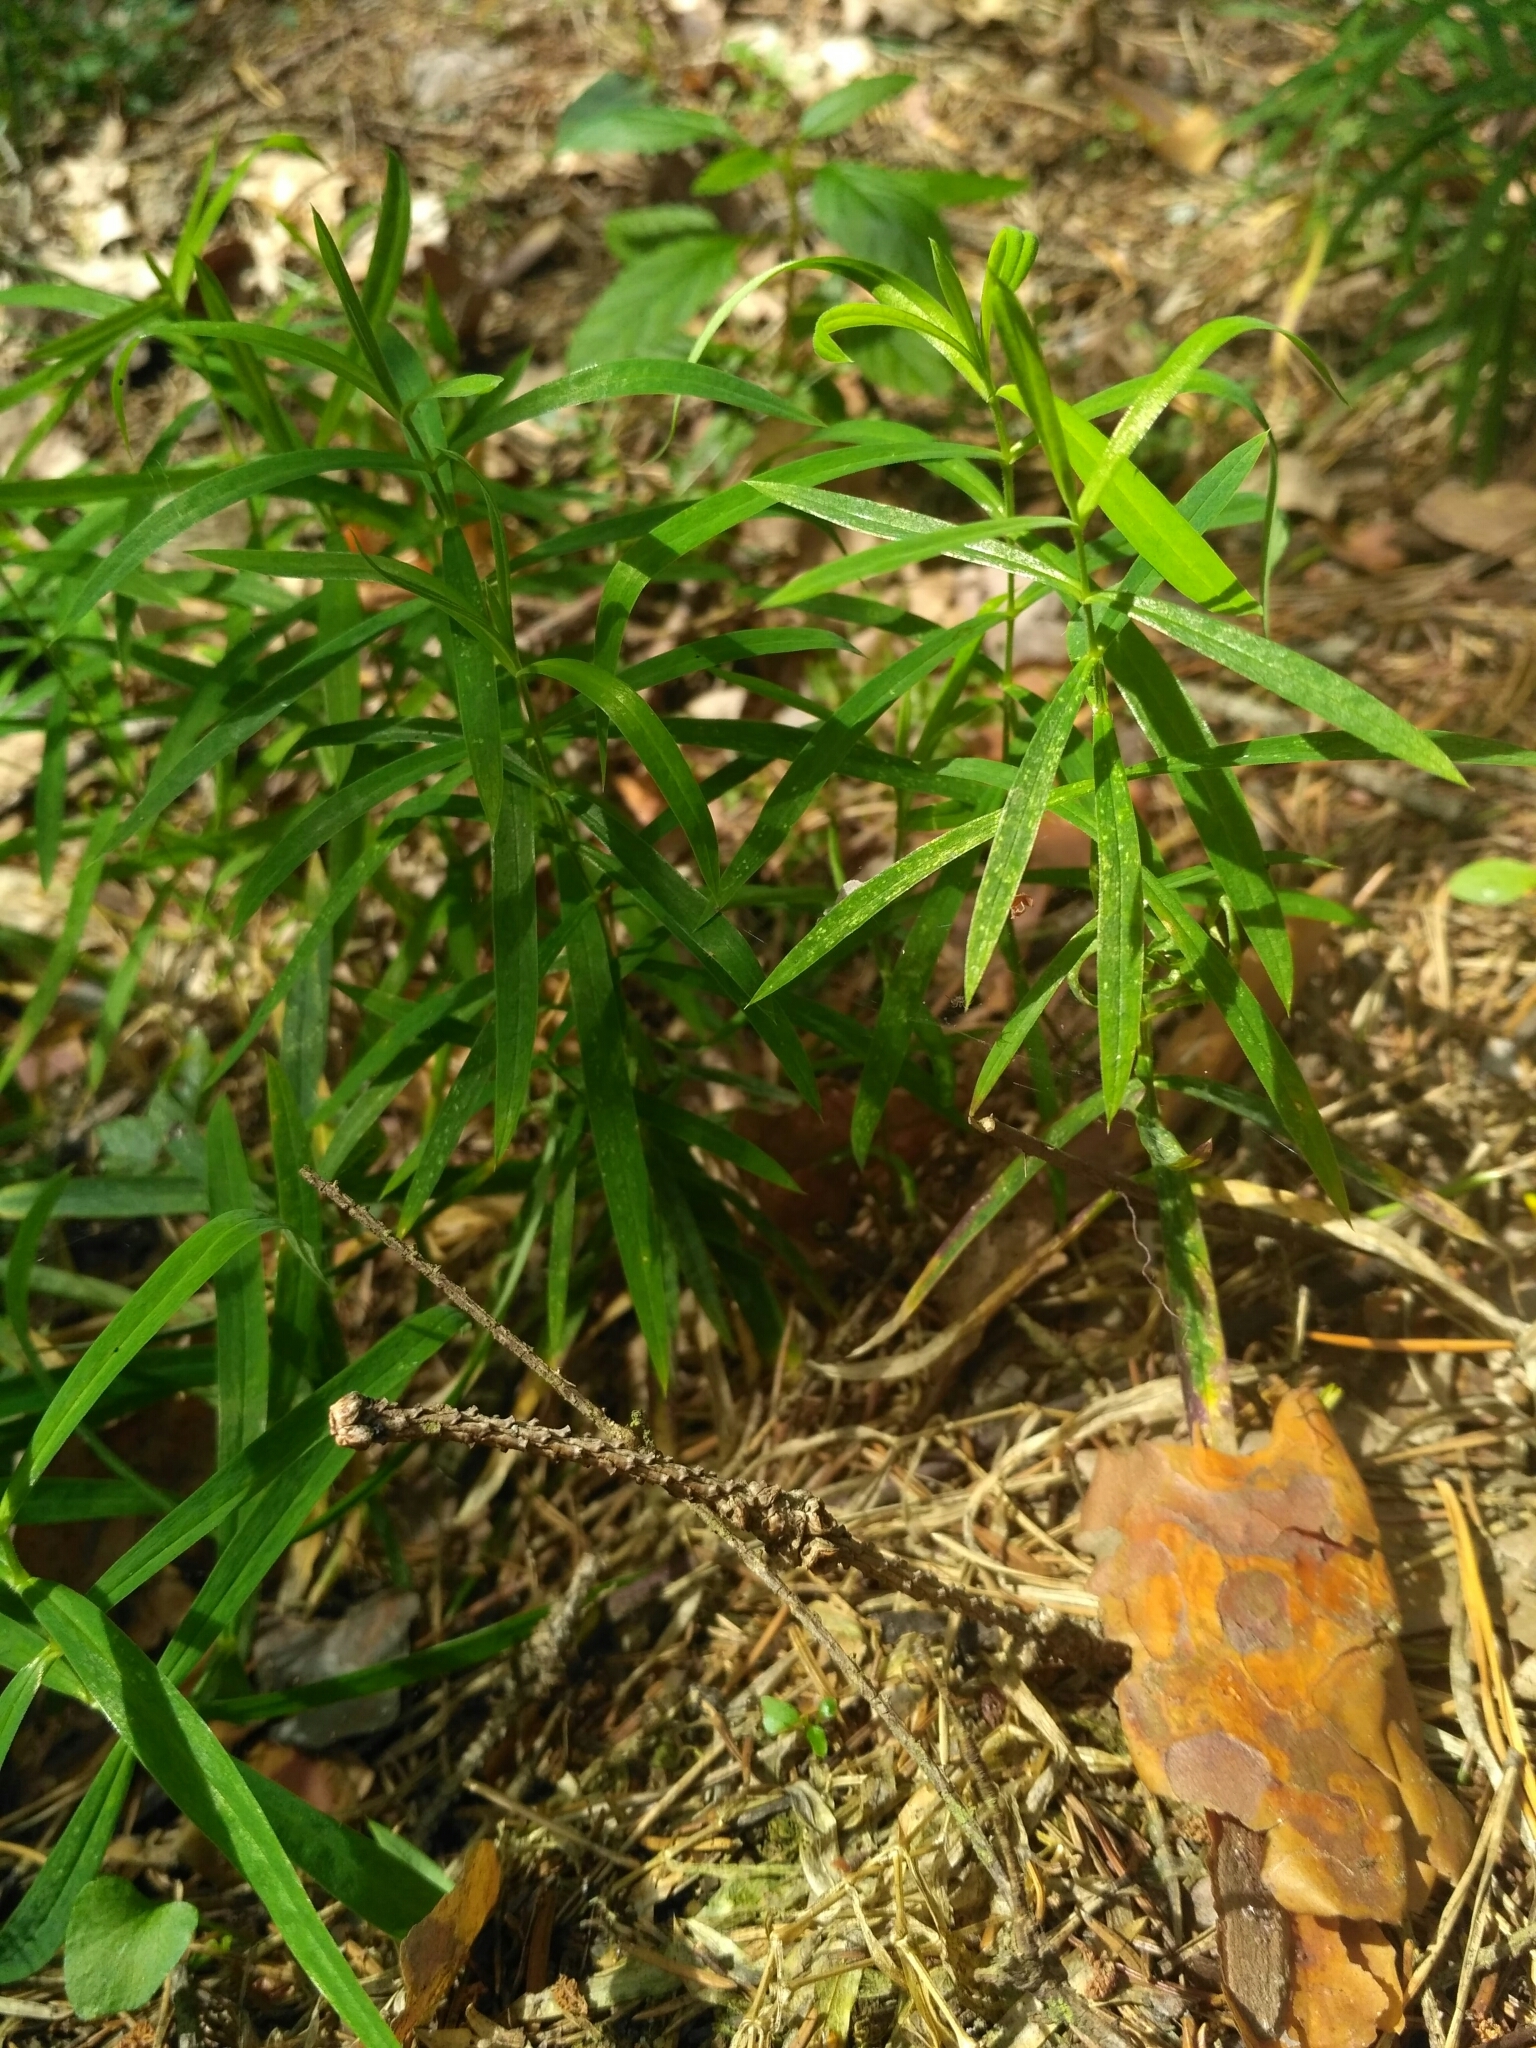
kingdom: Plantae
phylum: Tracheophyta
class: Magnoliopsida
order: Caryophyllales
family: Caryophyllaceae
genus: Rabelera
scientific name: Rabelera holostea
